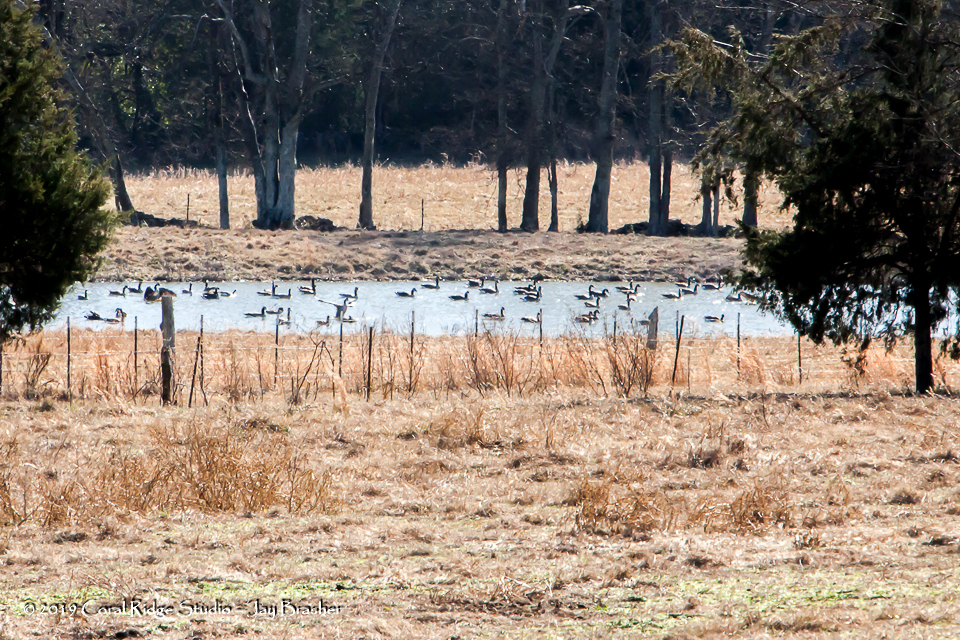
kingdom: Animalia
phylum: Chordata
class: Aves
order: Anseriformes
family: Anatidae
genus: Branta
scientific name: Branta canadensis
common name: Canada goose
